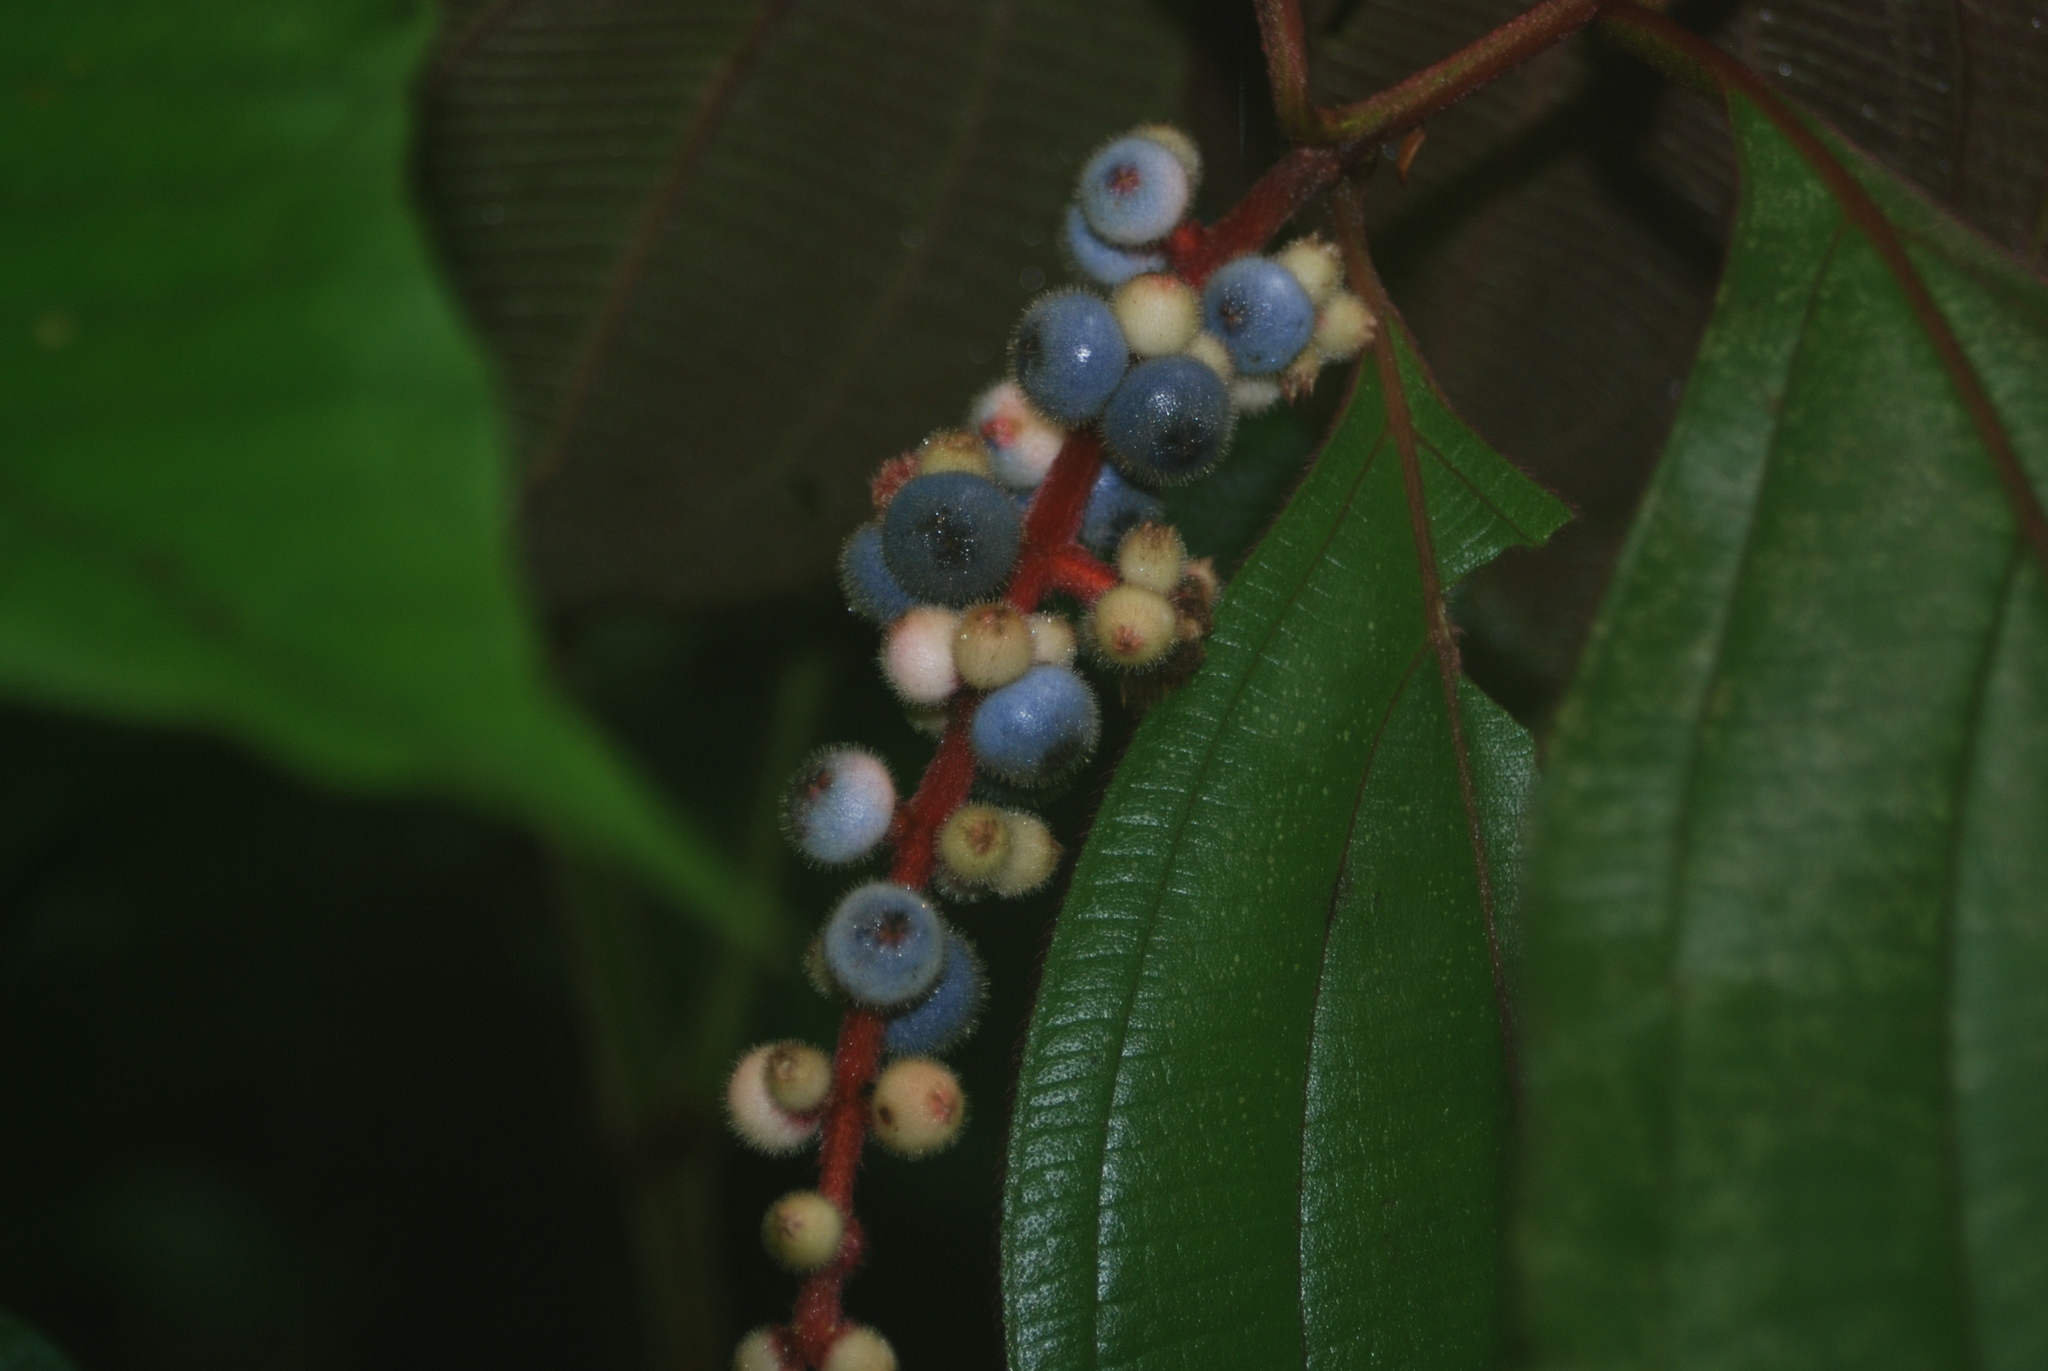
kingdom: Plantae
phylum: Tracheophyta
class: Magnoliopsida
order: Myrtales
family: Melastomataceae
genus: Miconia
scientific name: Miconia nervosa
